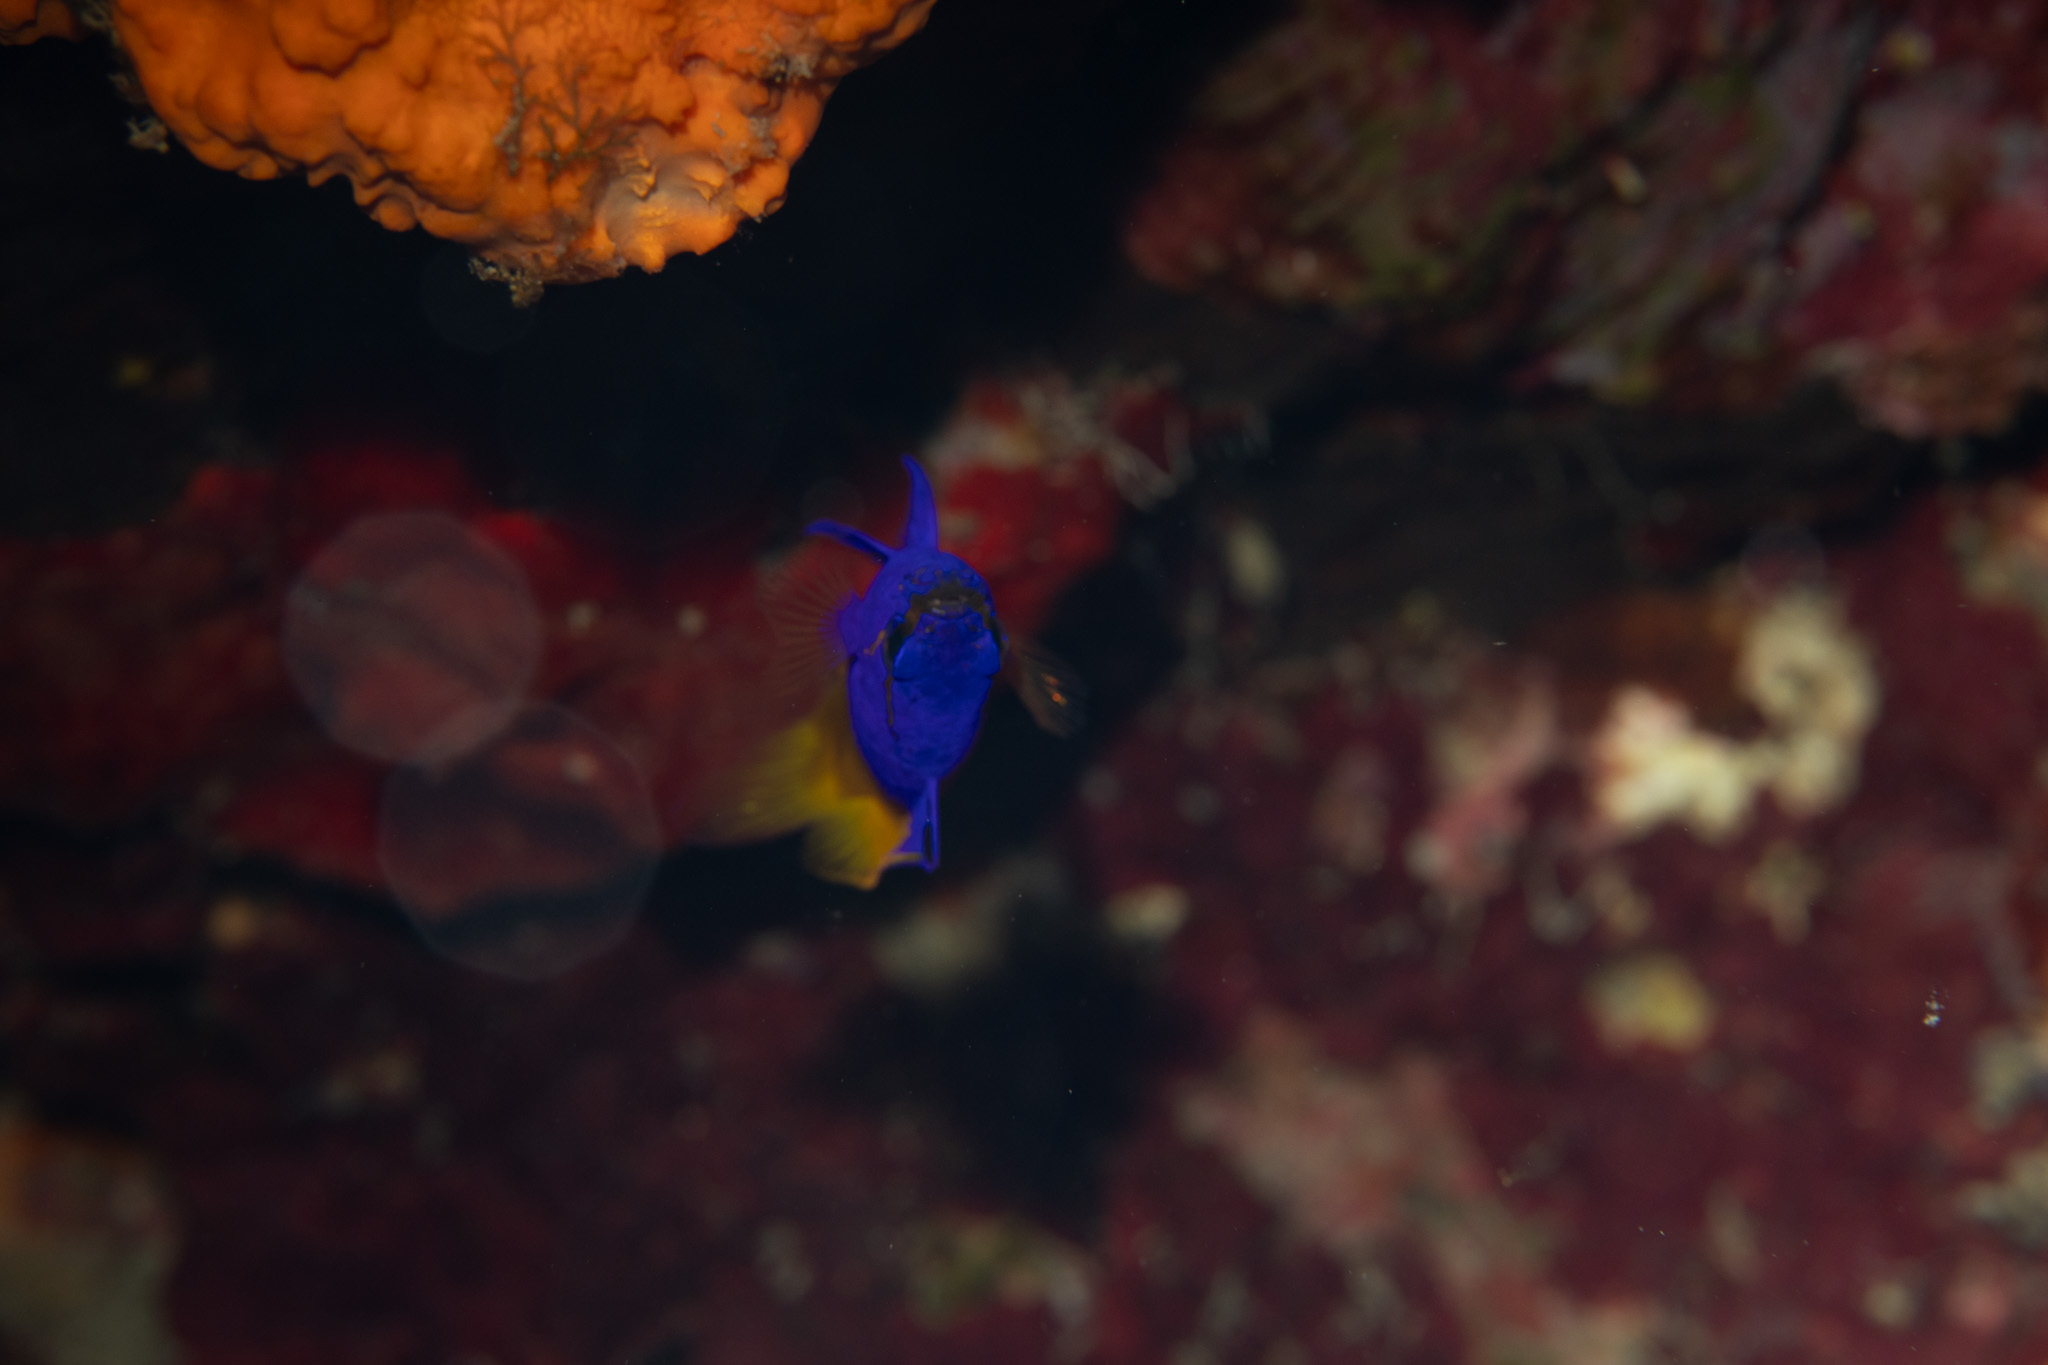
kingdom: Animalia
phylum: Chordata
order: Perciformes
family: Grammatidae
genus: Gramma
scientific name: Gramma loreto
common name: Fairy basslet
